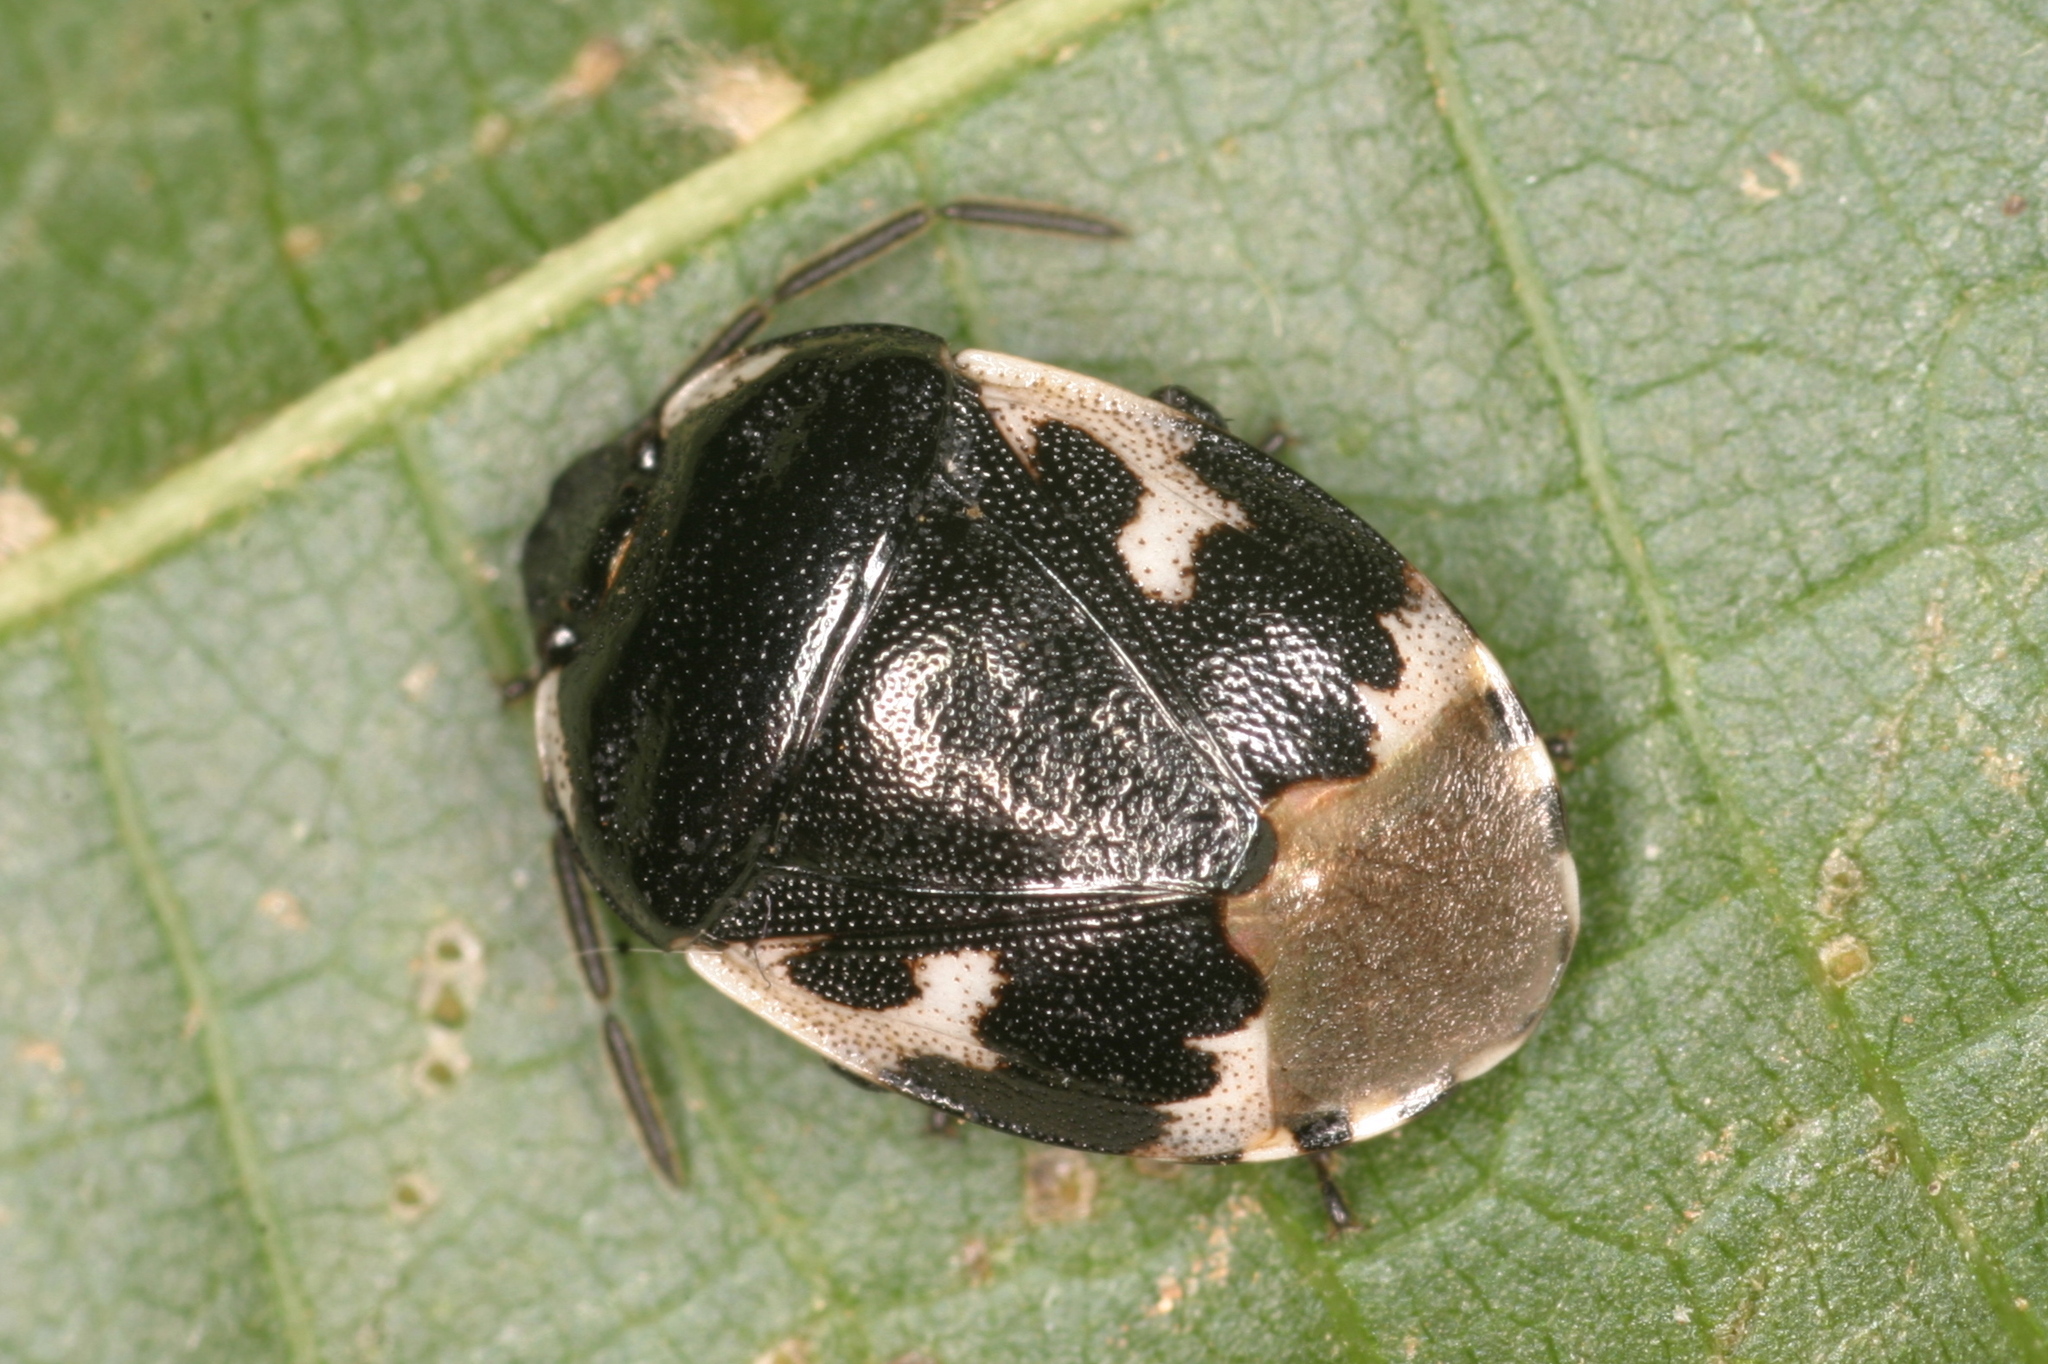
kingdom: Animalia
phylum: Arthropoda
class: Insecta
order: Hemiptera
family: Cydnidae
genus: Tritomegas
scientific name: Tritomegas bicolor
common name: Pied shieldbug
